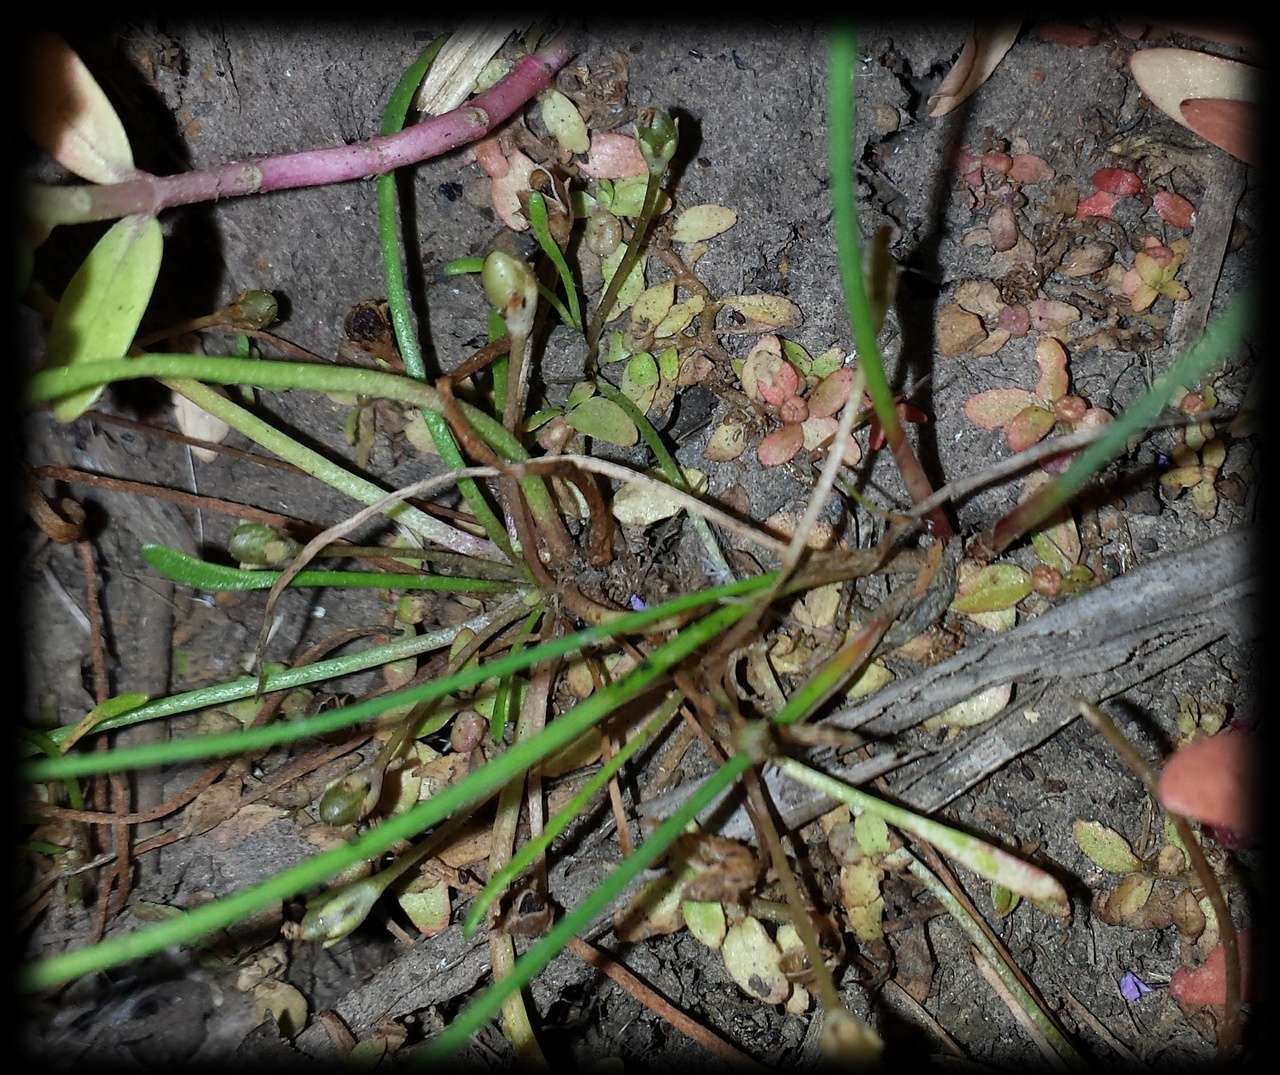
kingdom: Plantae
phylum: Tracheophyta
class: Magnoliopsida
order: Lamiales
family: Scrophulariaceae
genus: Limosella
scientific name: Limosella australis
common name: Welsh mudwort
